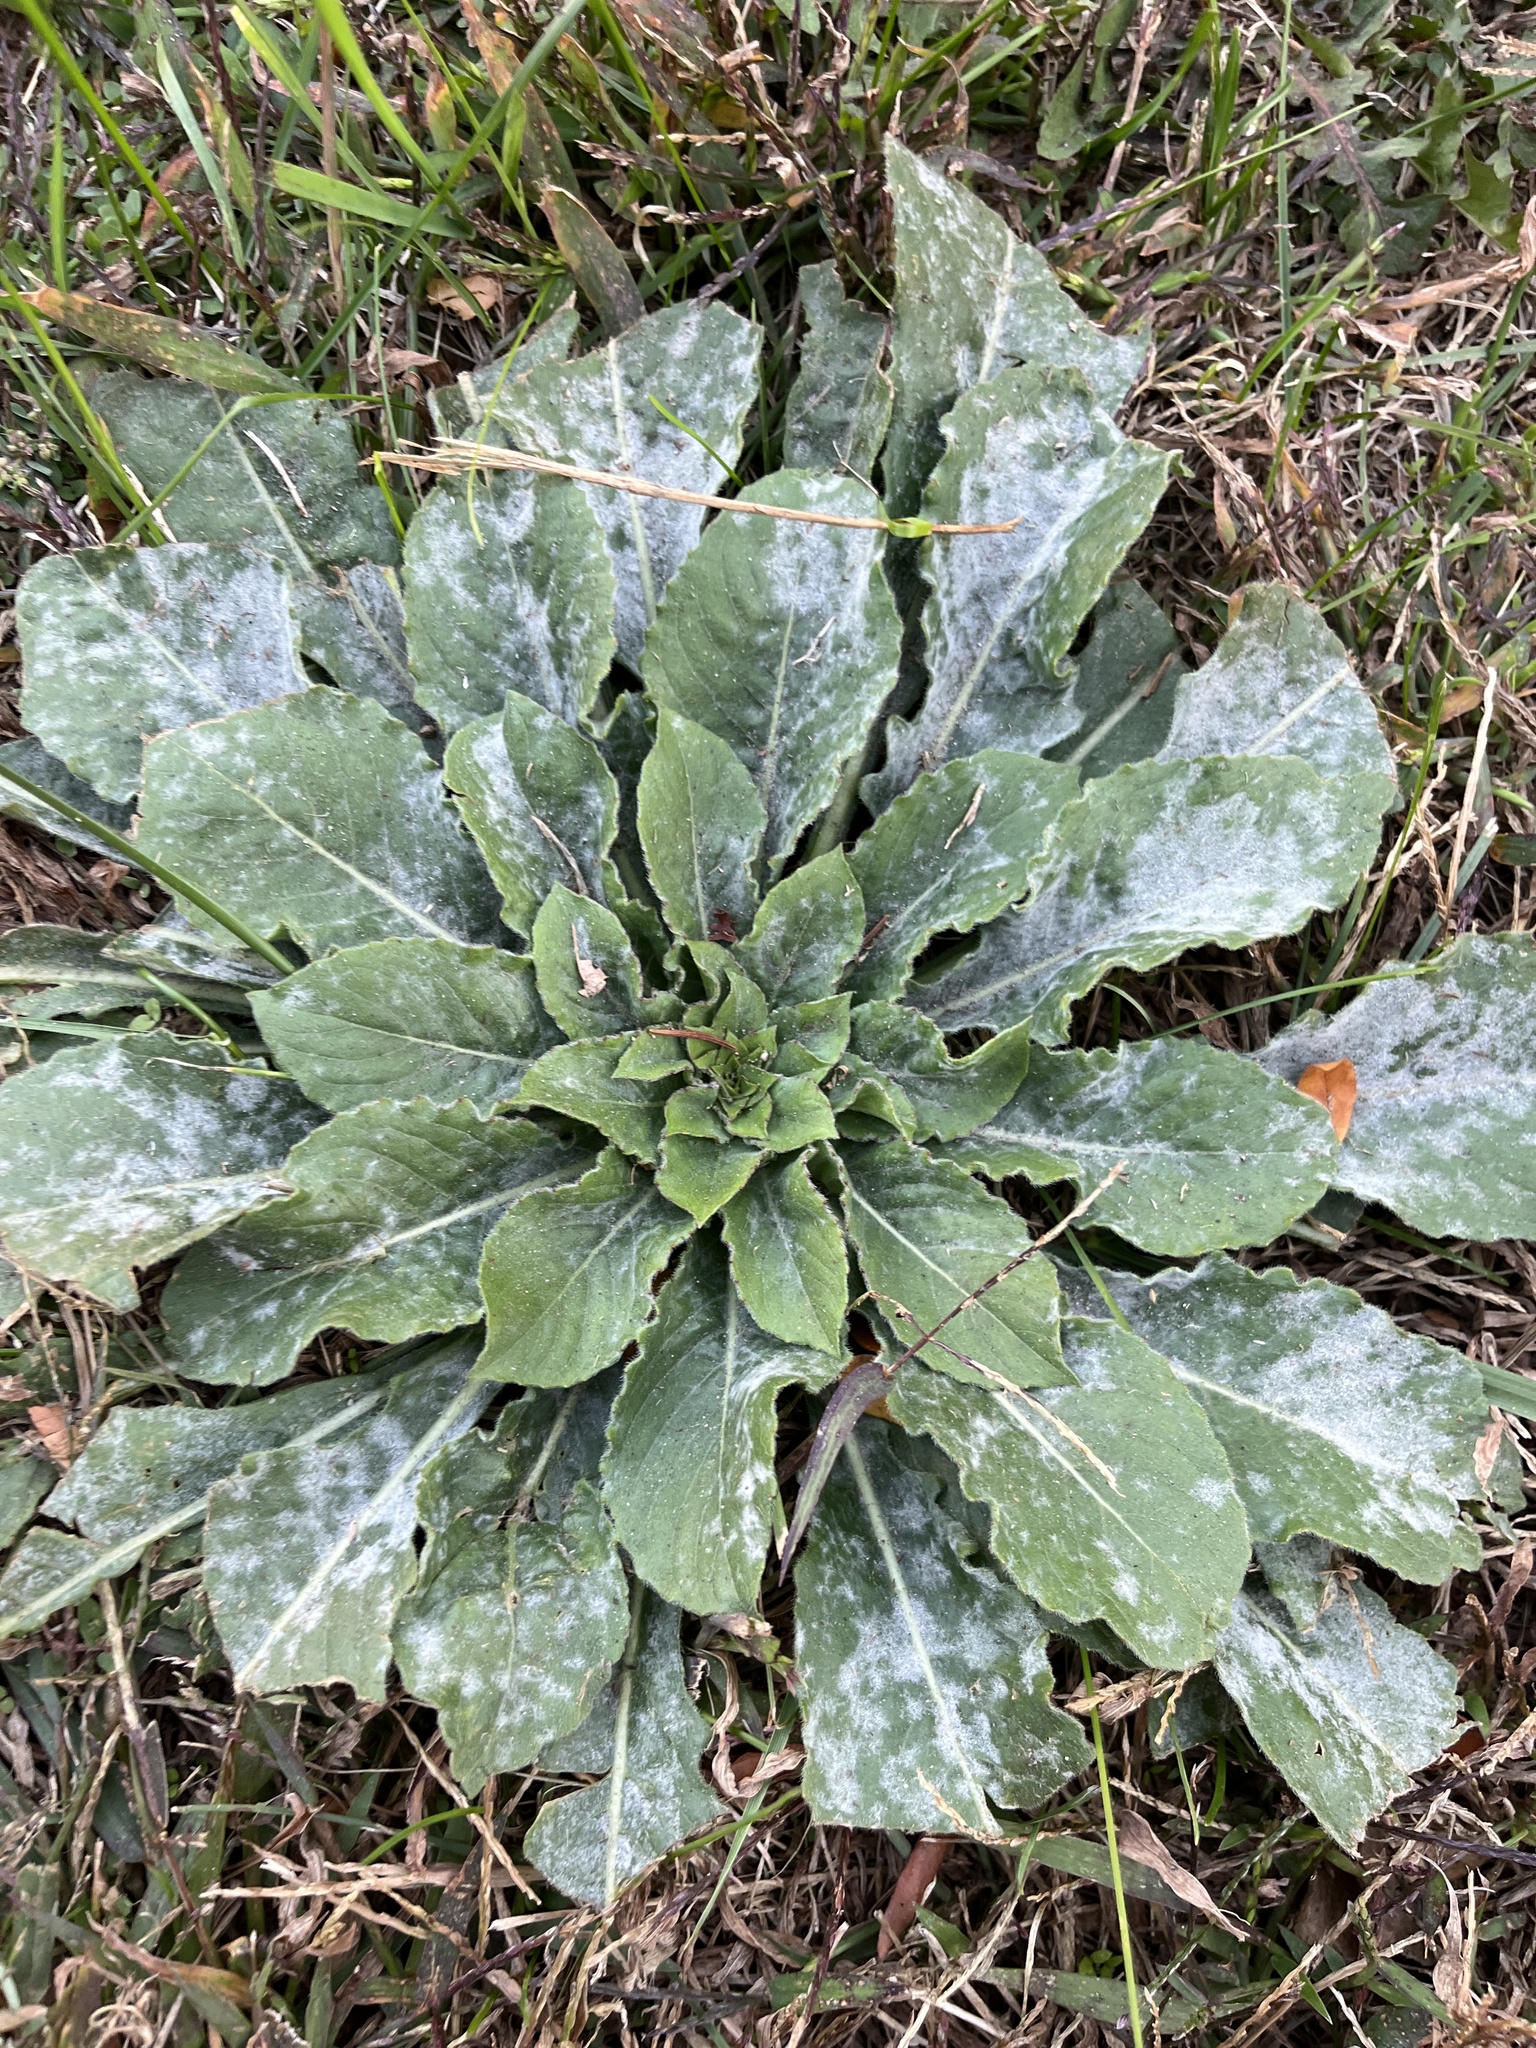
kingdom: Plantae
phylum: Tracheophyta
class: Magnoliopsida
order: Myrtales
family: Onagraceae
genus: Oenothera
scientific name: Oenothera biennis
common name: Common evening-primrose
